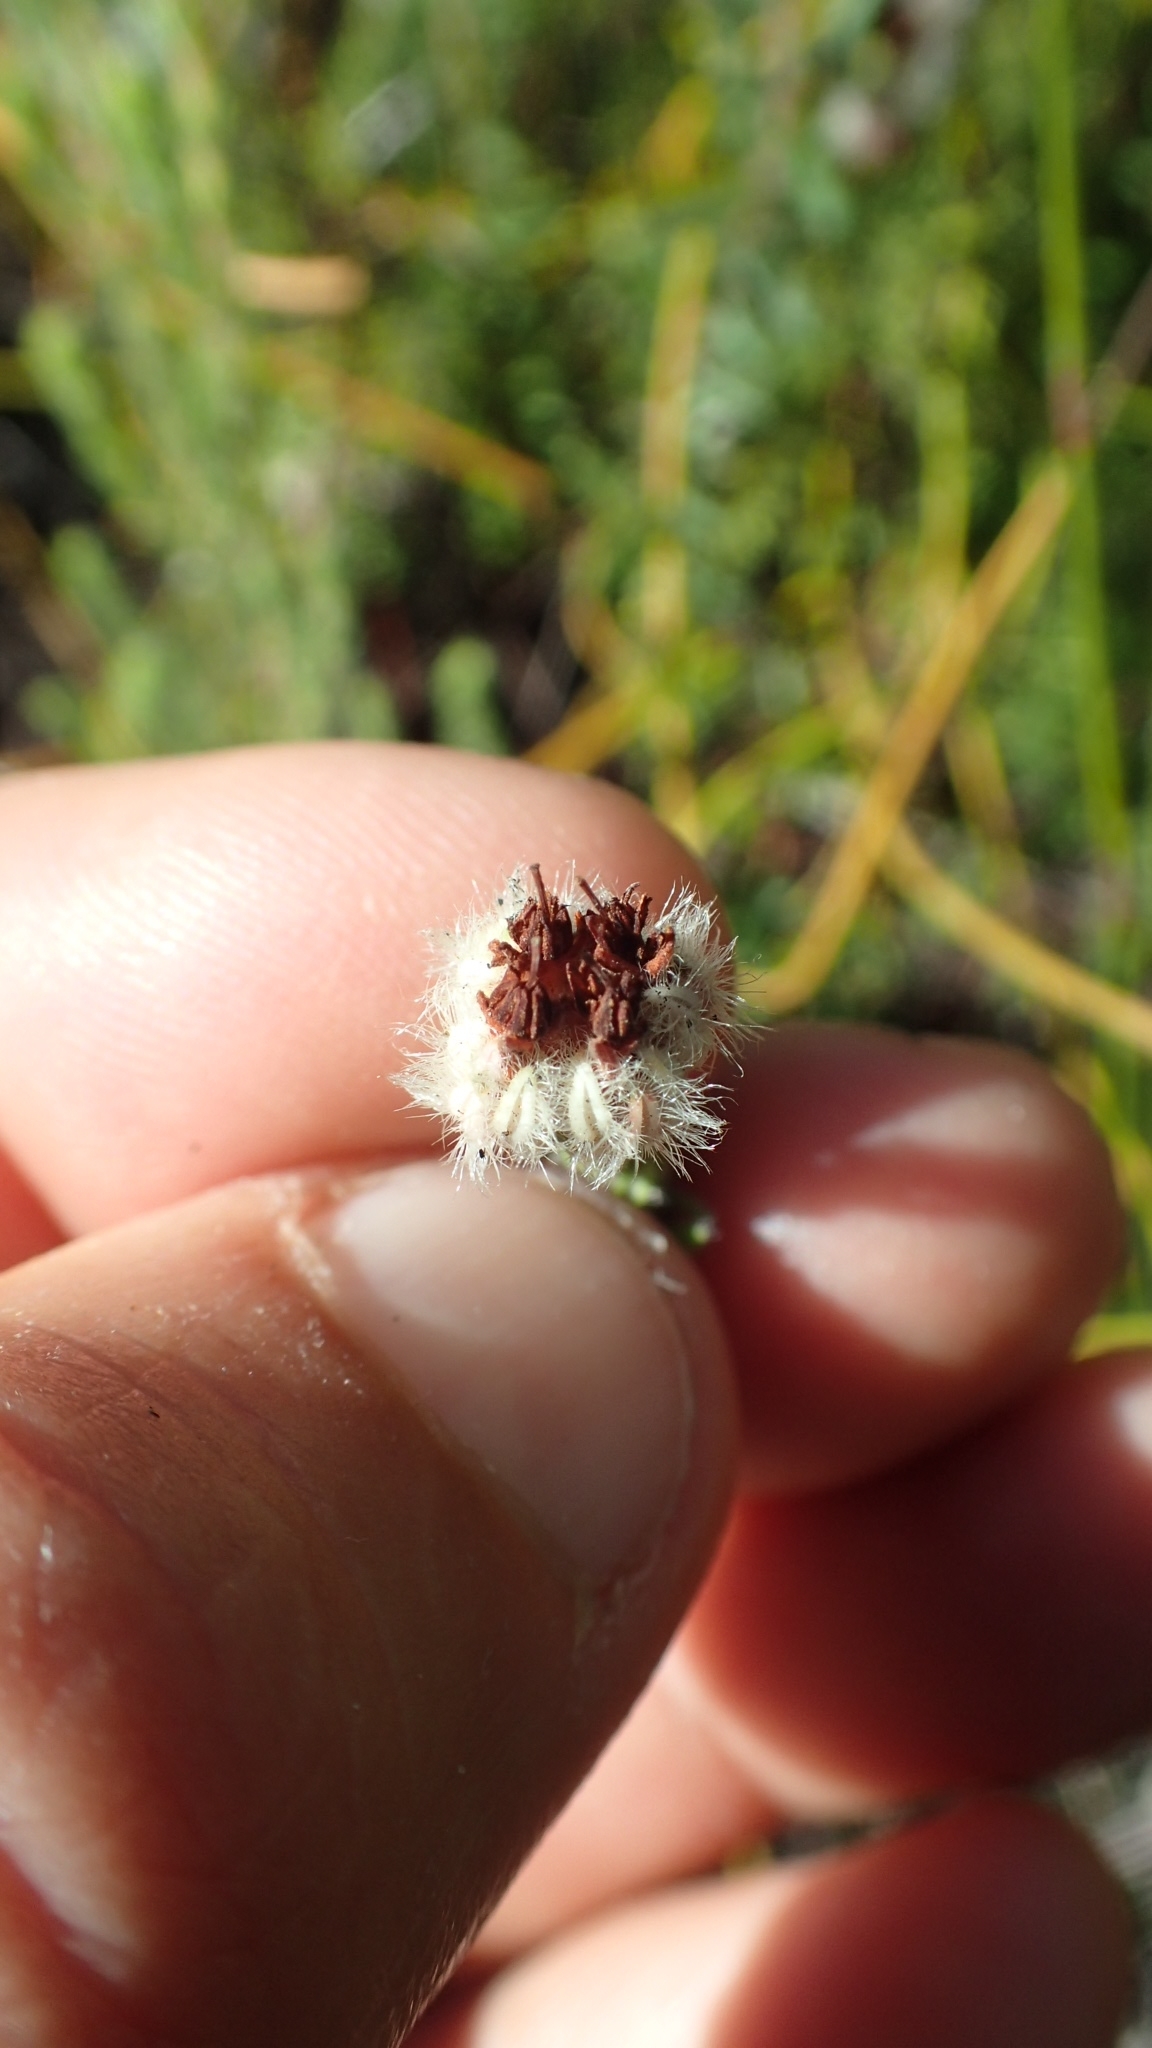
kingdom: Plantae
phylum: Tracheophyta
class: Magnoliopsida
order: Ericales
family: Ericaceae
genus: Erica
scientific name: Erica flaccida
